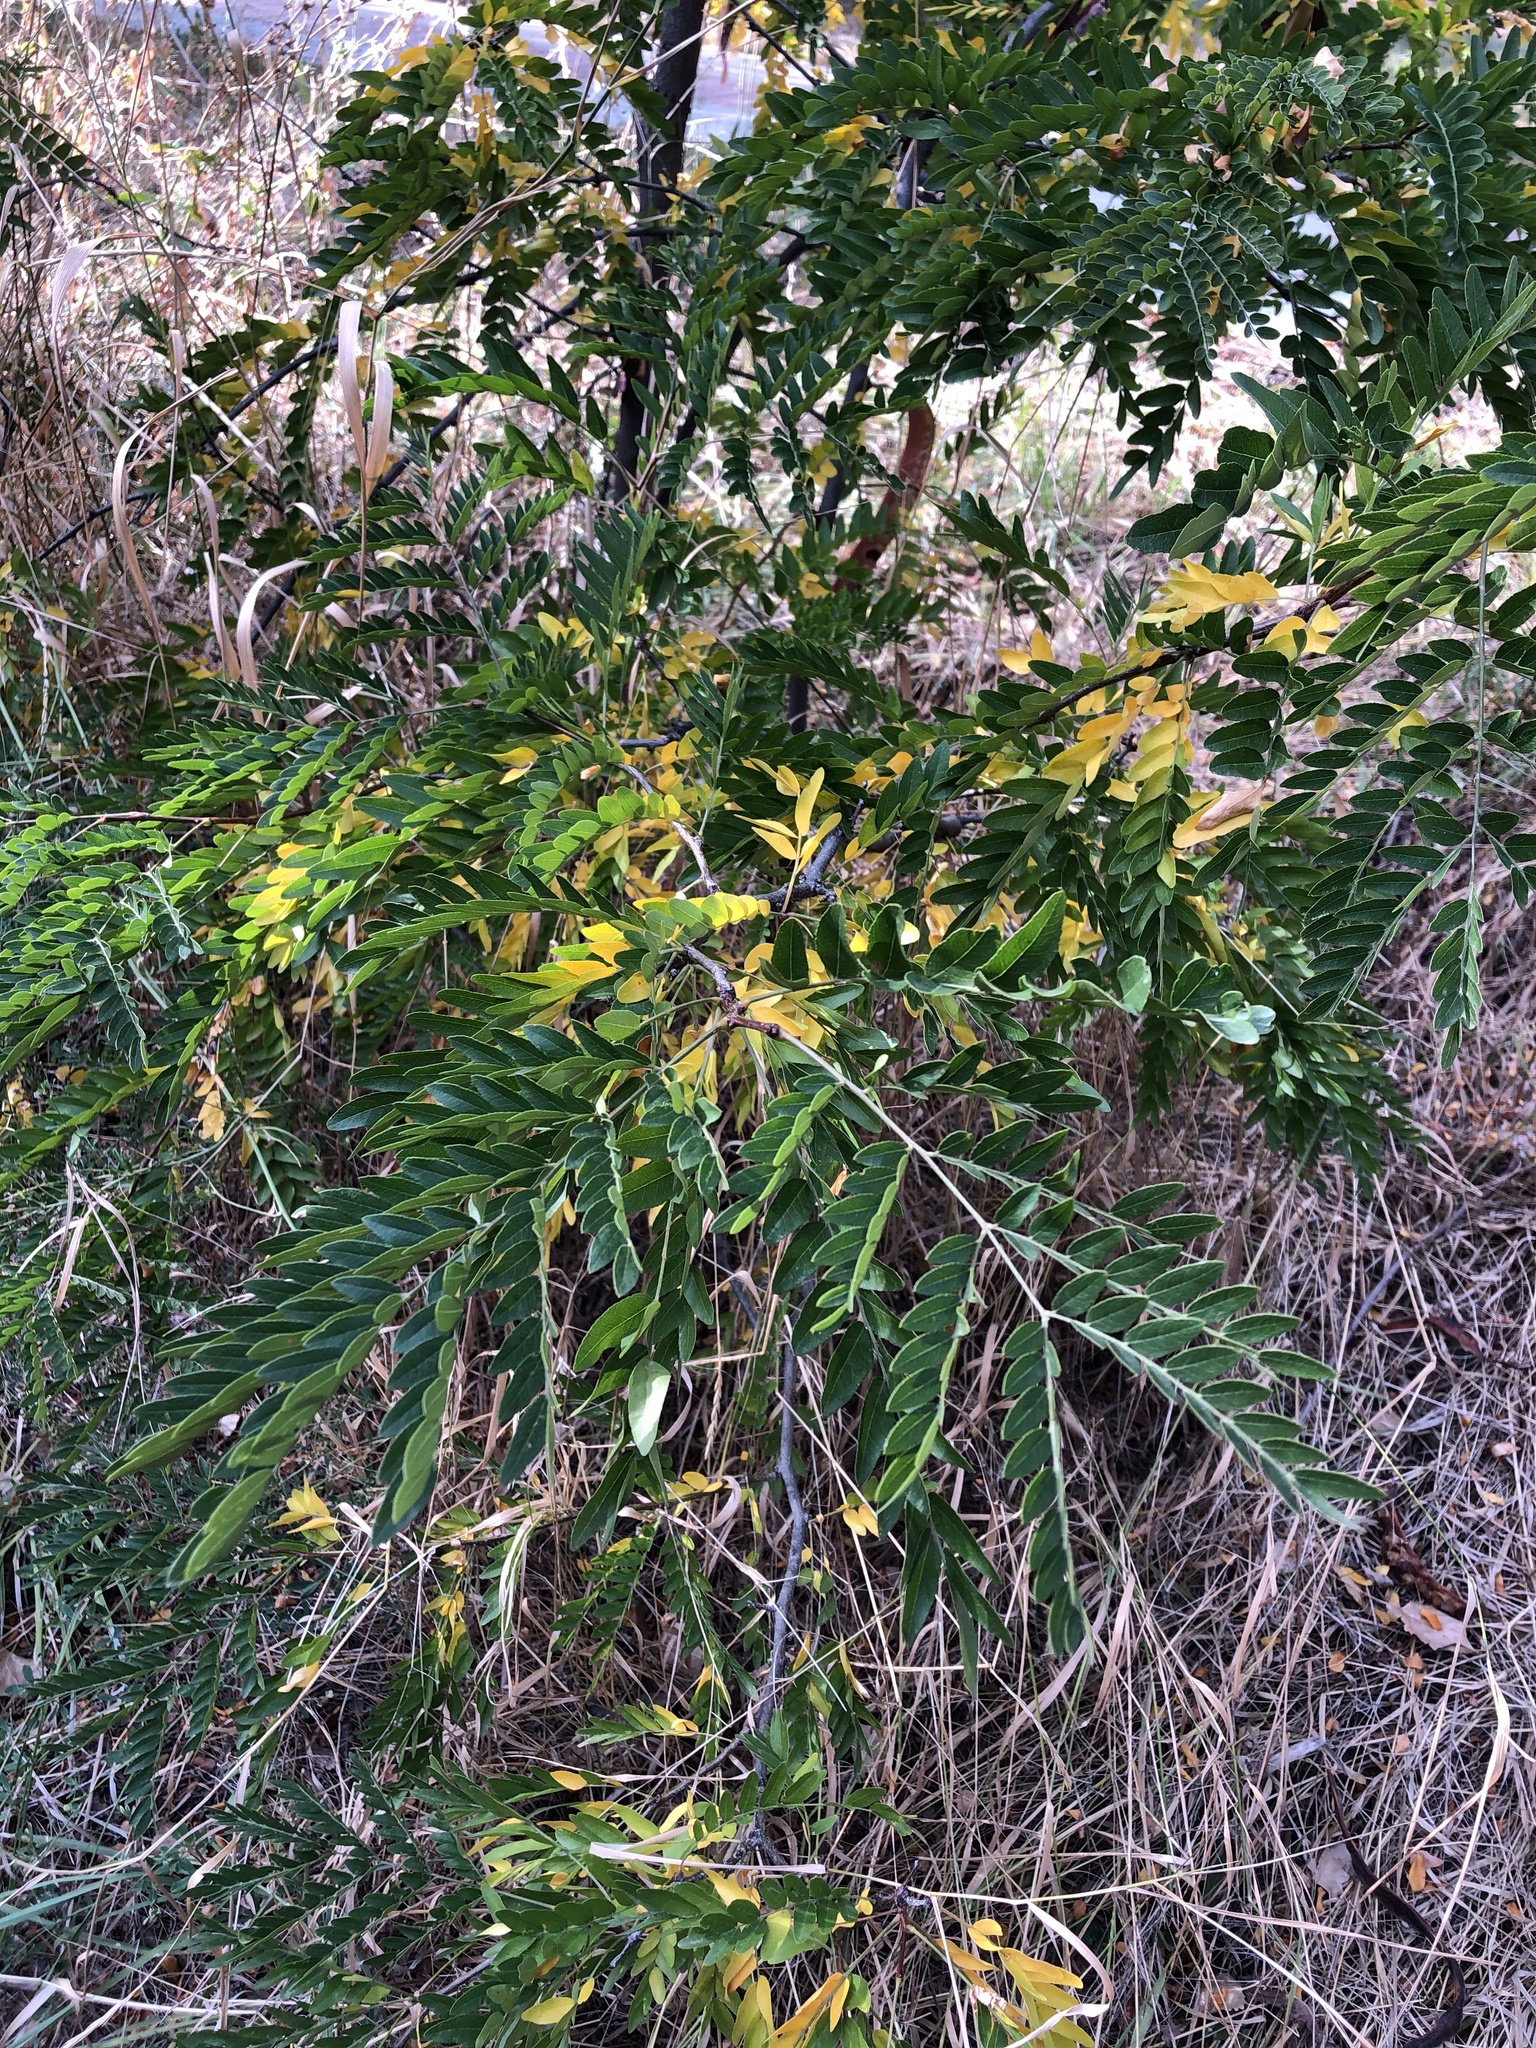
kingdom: Plantae
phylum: Tracheophyta
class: Magnoliopsida
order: Fabales
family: Fabaceae
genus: Gleditsia
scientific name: Gleditsia triacanthos
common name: Common honeylocust
